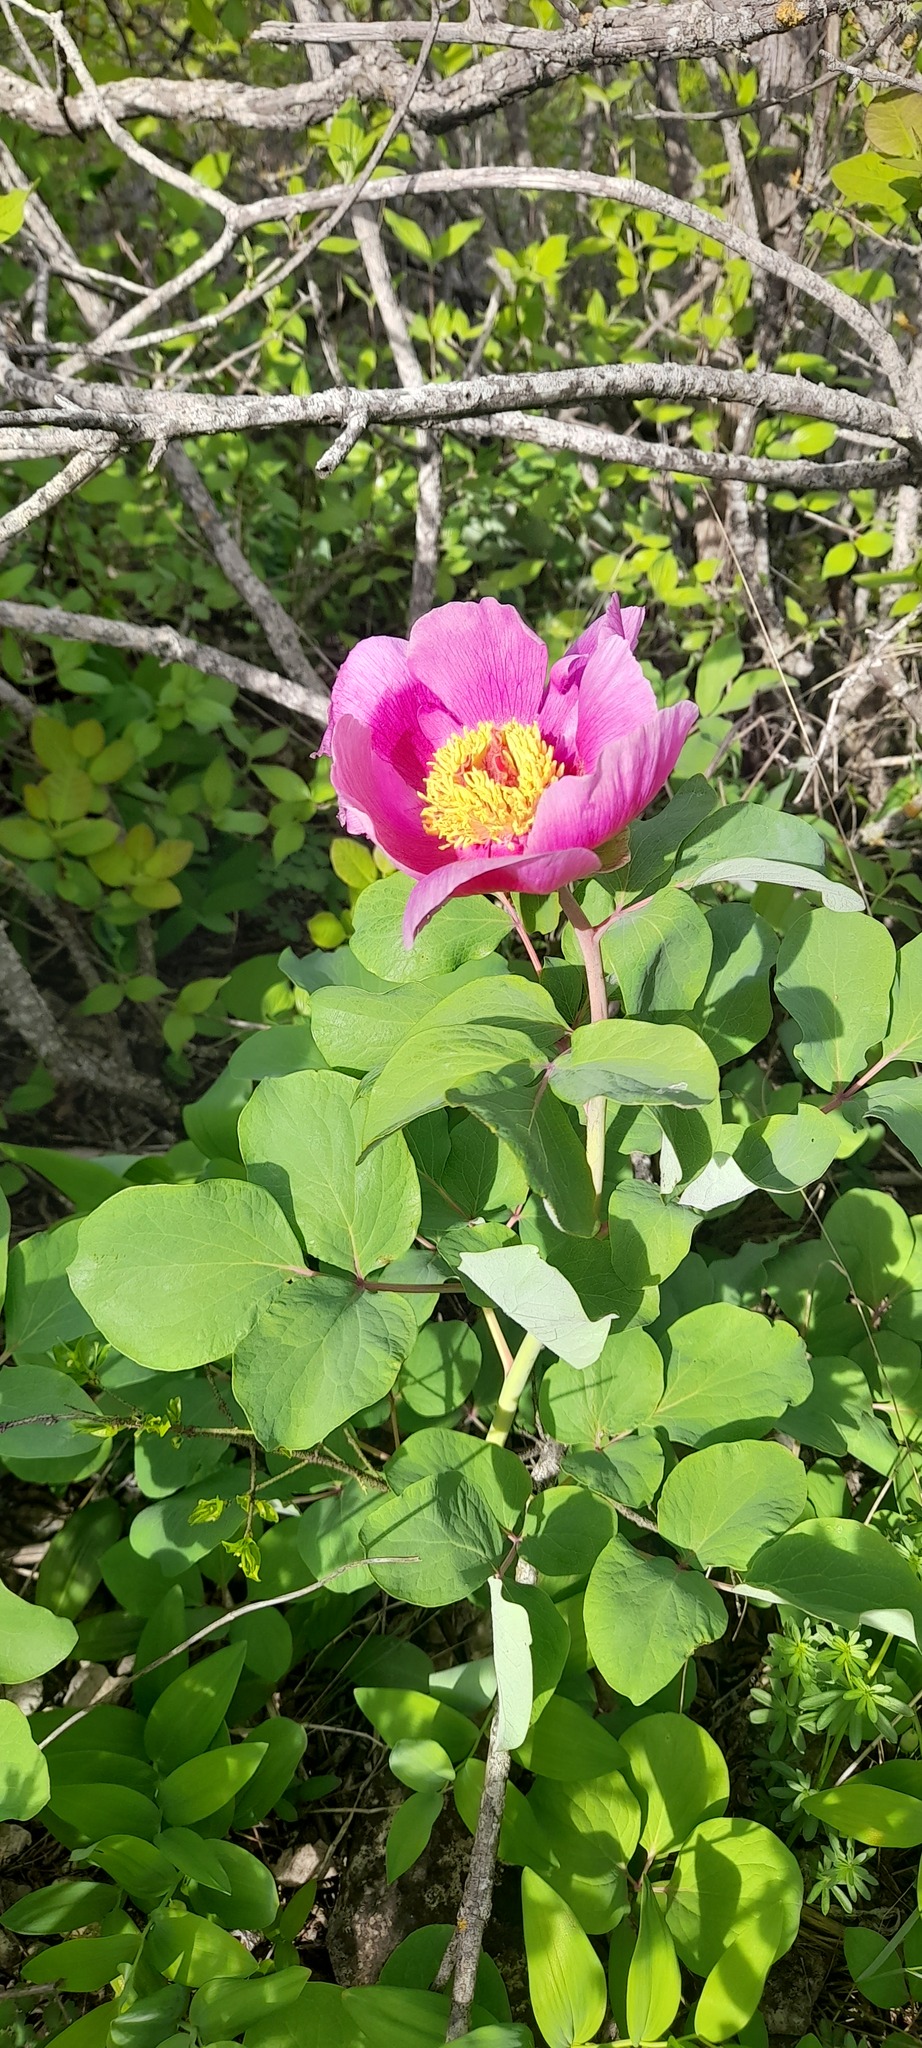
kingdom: Plantae
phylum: Tracheophyta
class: Magnoliopsida
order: Saxifragales
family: Paeoniaceae
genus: Paeonia
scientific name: Paeonia daurica
